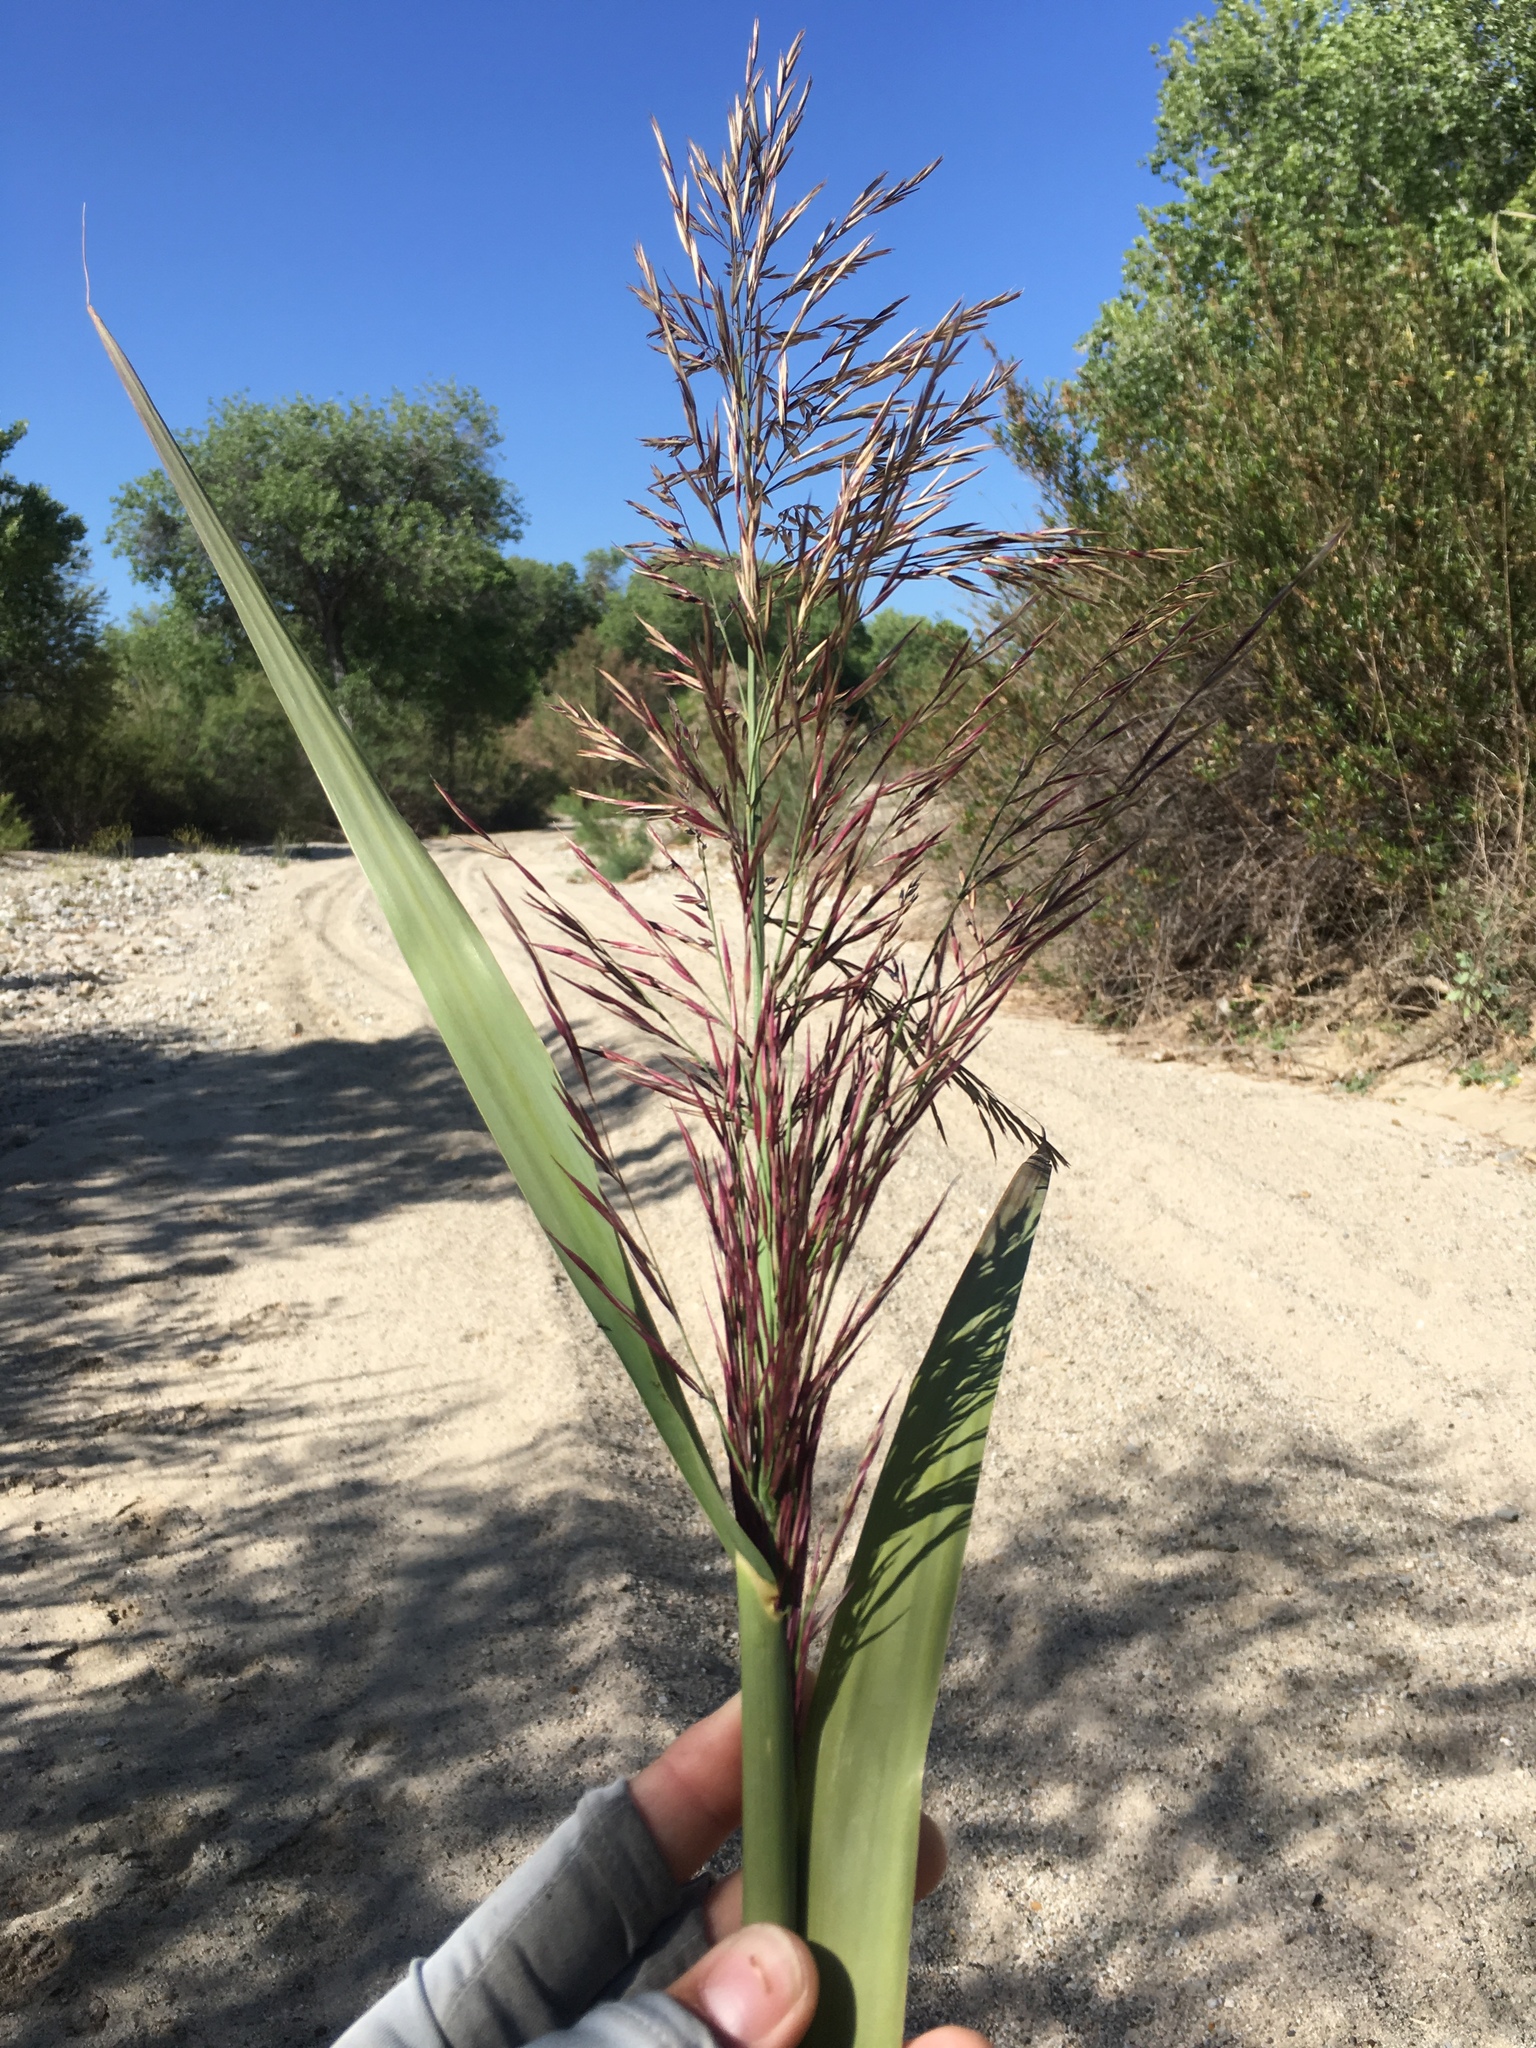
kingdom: Plantae
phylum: Tracheophyta
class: Liliopsida
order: Poales
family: Poaceae
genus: Arundo
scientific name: Arundo donax
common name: Giant reed
